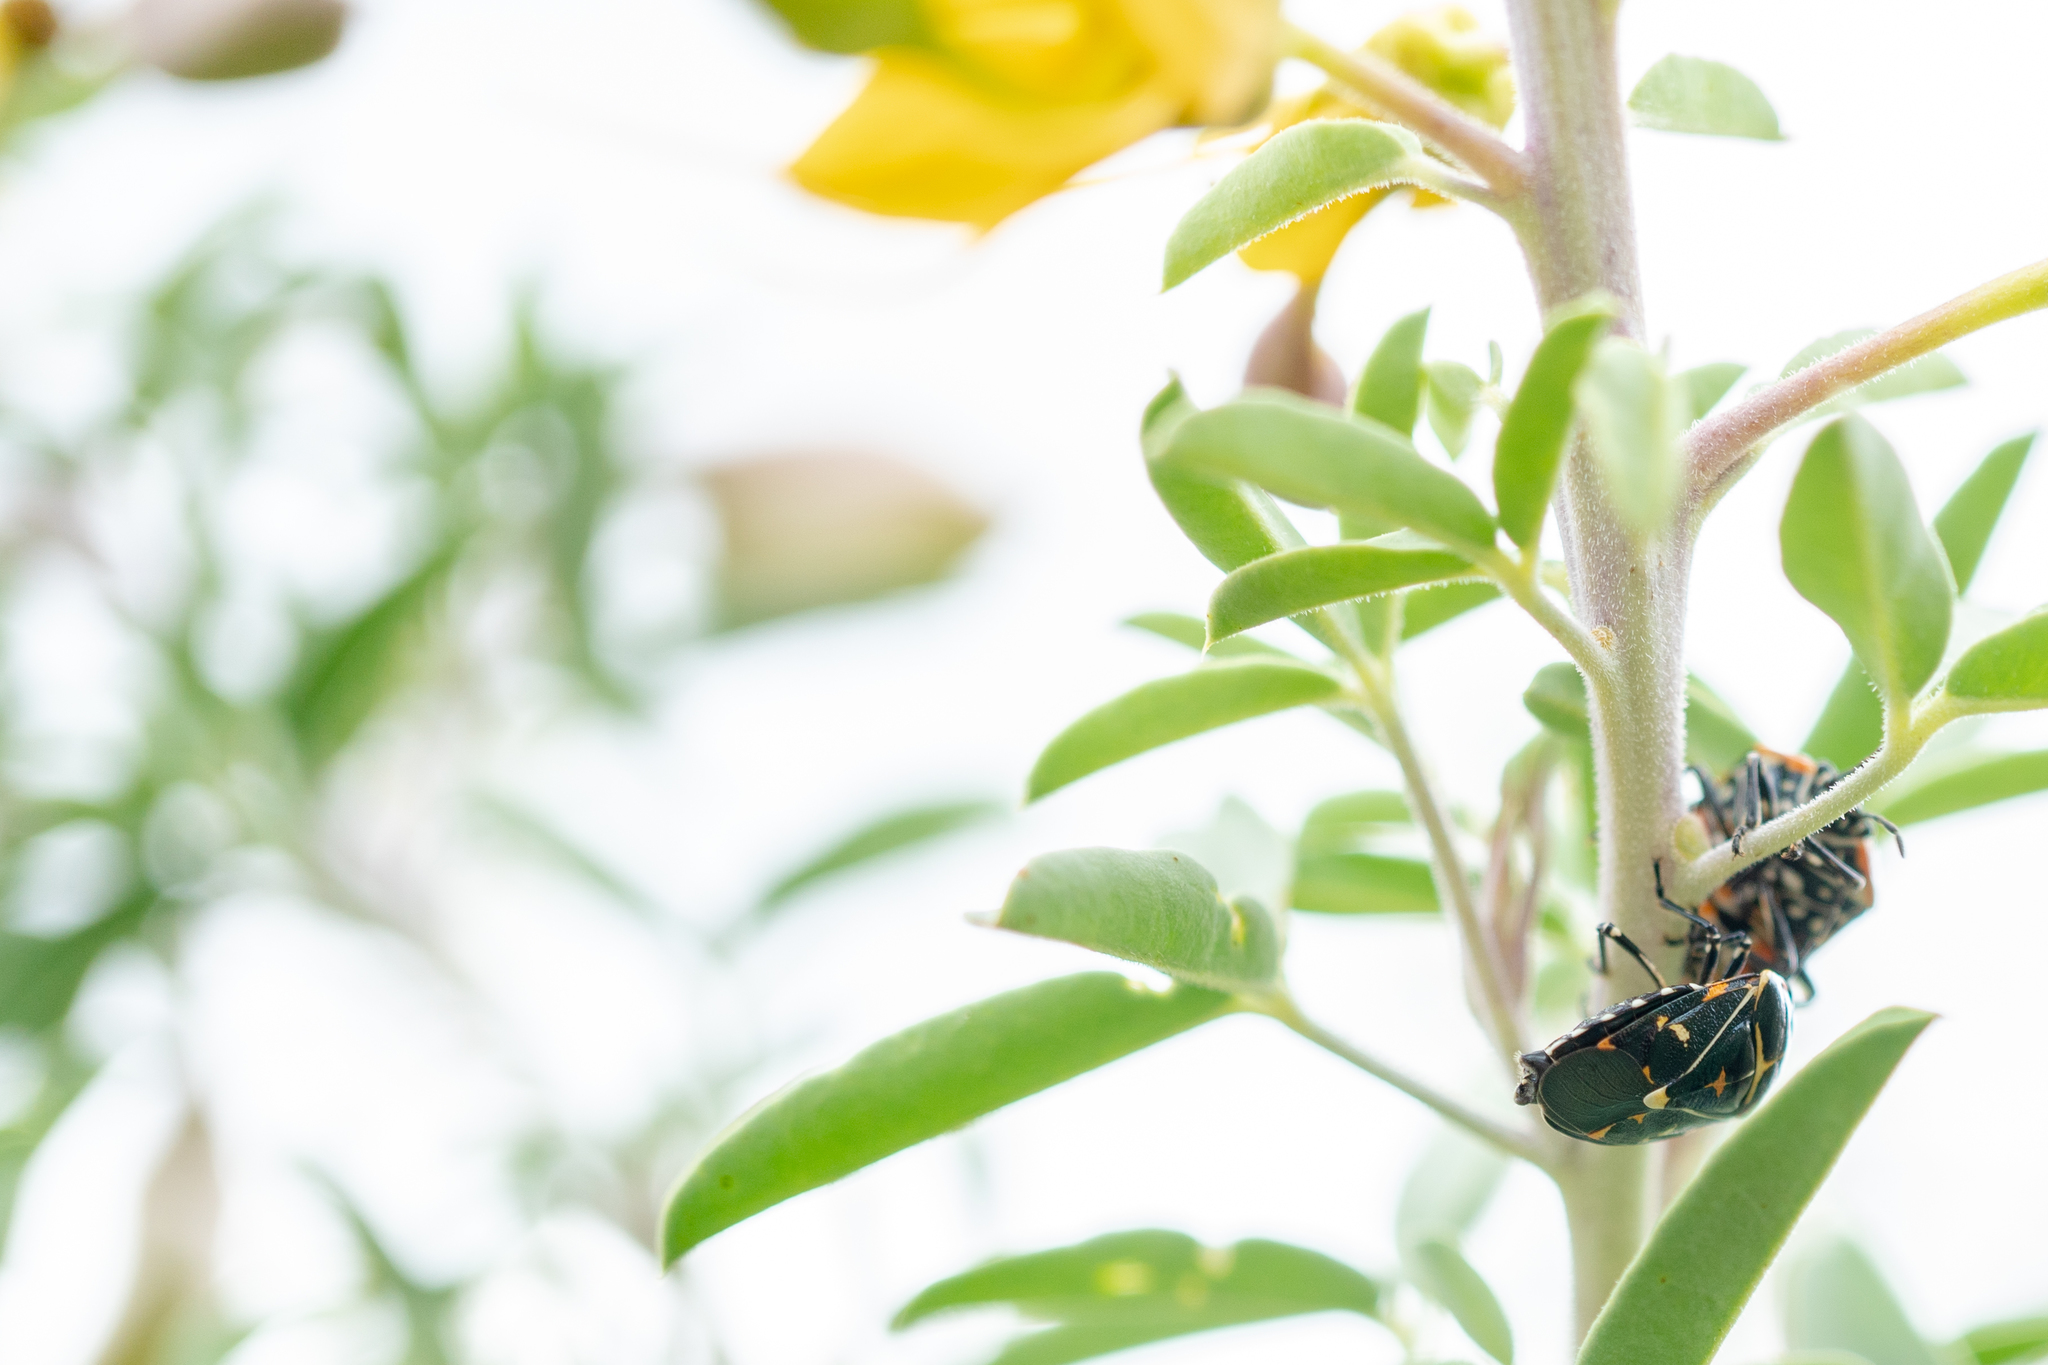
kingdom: Animalia
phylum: Arthropoda
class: Insecta
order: Hemiptera
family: Pentatomidae
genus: Murgantia
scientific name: Murgantia histrionica
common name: Harlequin bug
